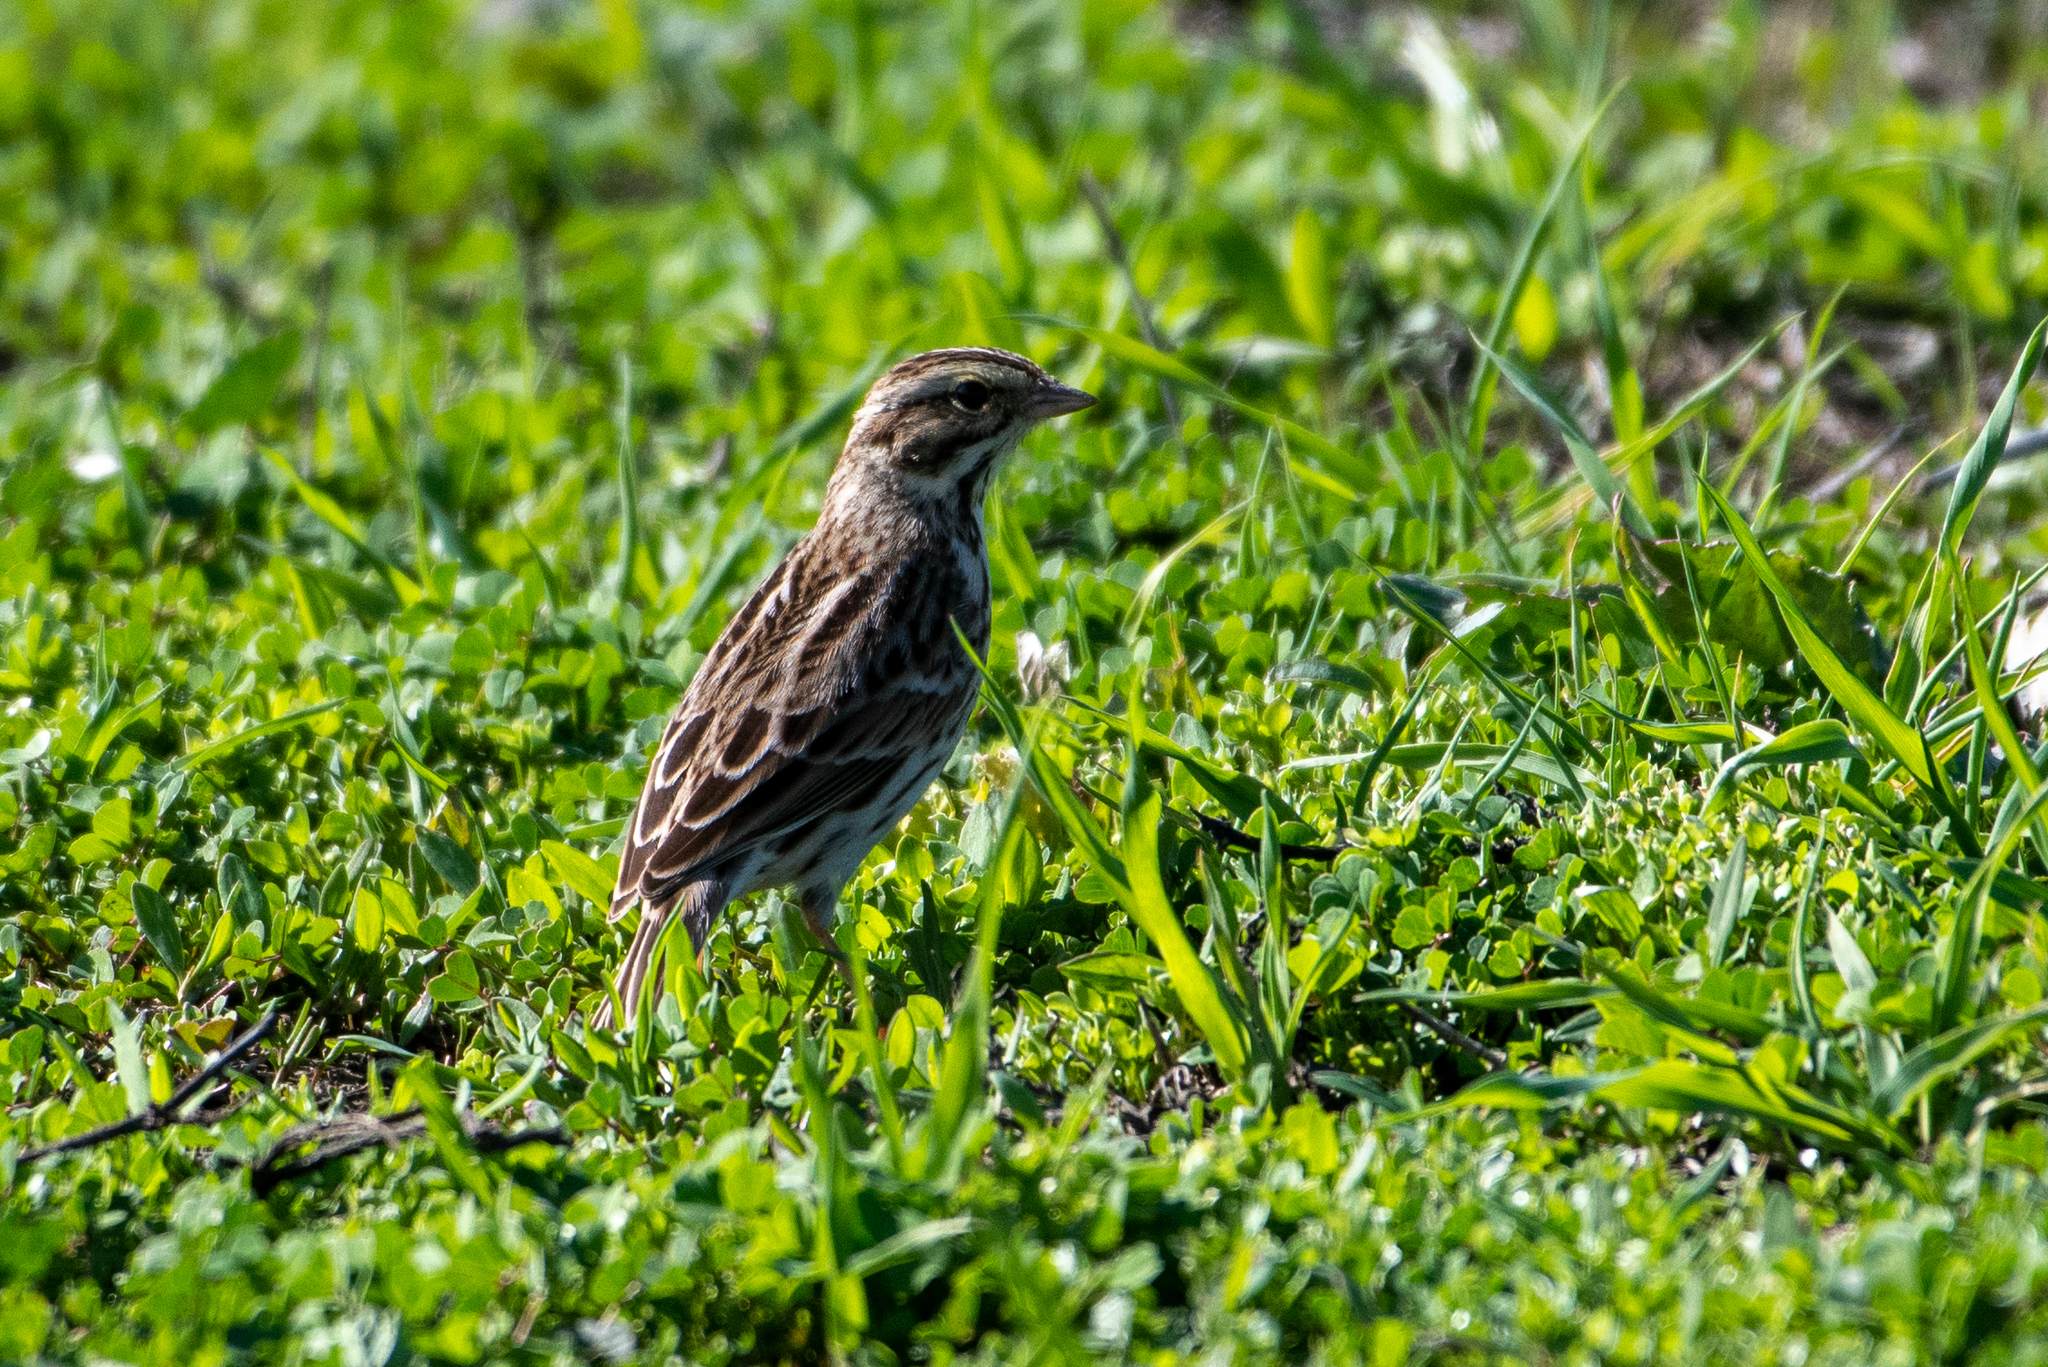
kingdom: Animalia
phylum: Chordata
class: Aves
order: Passeriformes
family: Passerellidae
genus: Passerculus
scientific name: Passerculus sandwichensis
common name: Savannah sparrow
